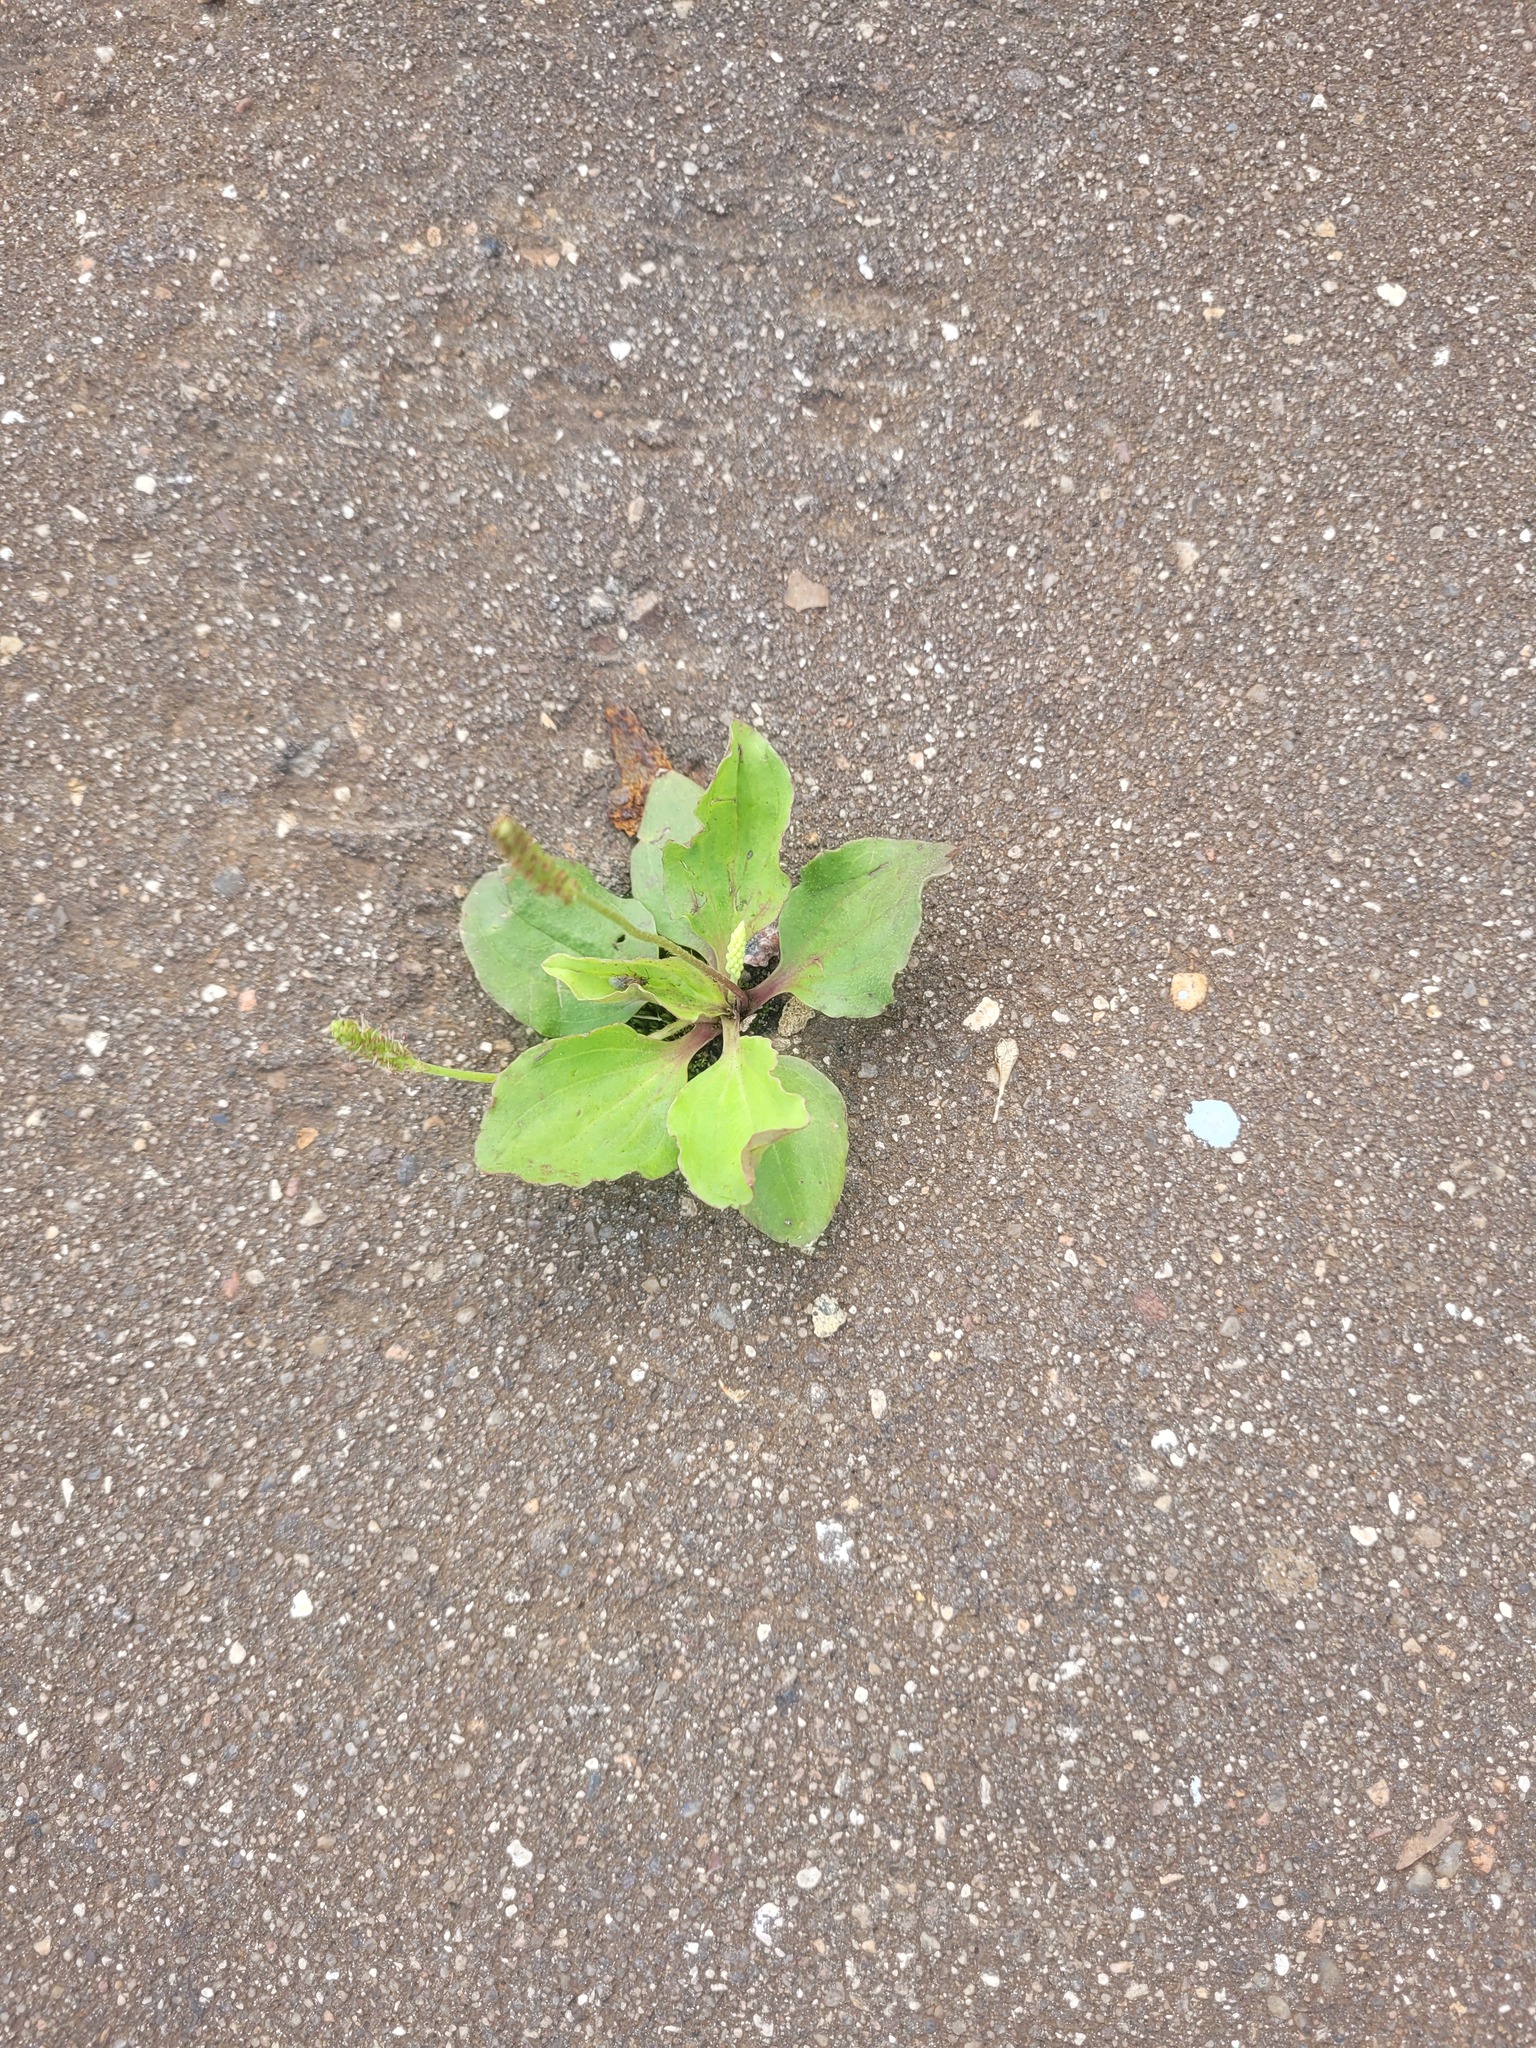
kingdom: Plantae
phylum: Tracheophyta
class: Magnoliopsida
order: Lamiales
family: Plantaginaceae
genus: Plantago
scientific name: Plantago uliginosa
